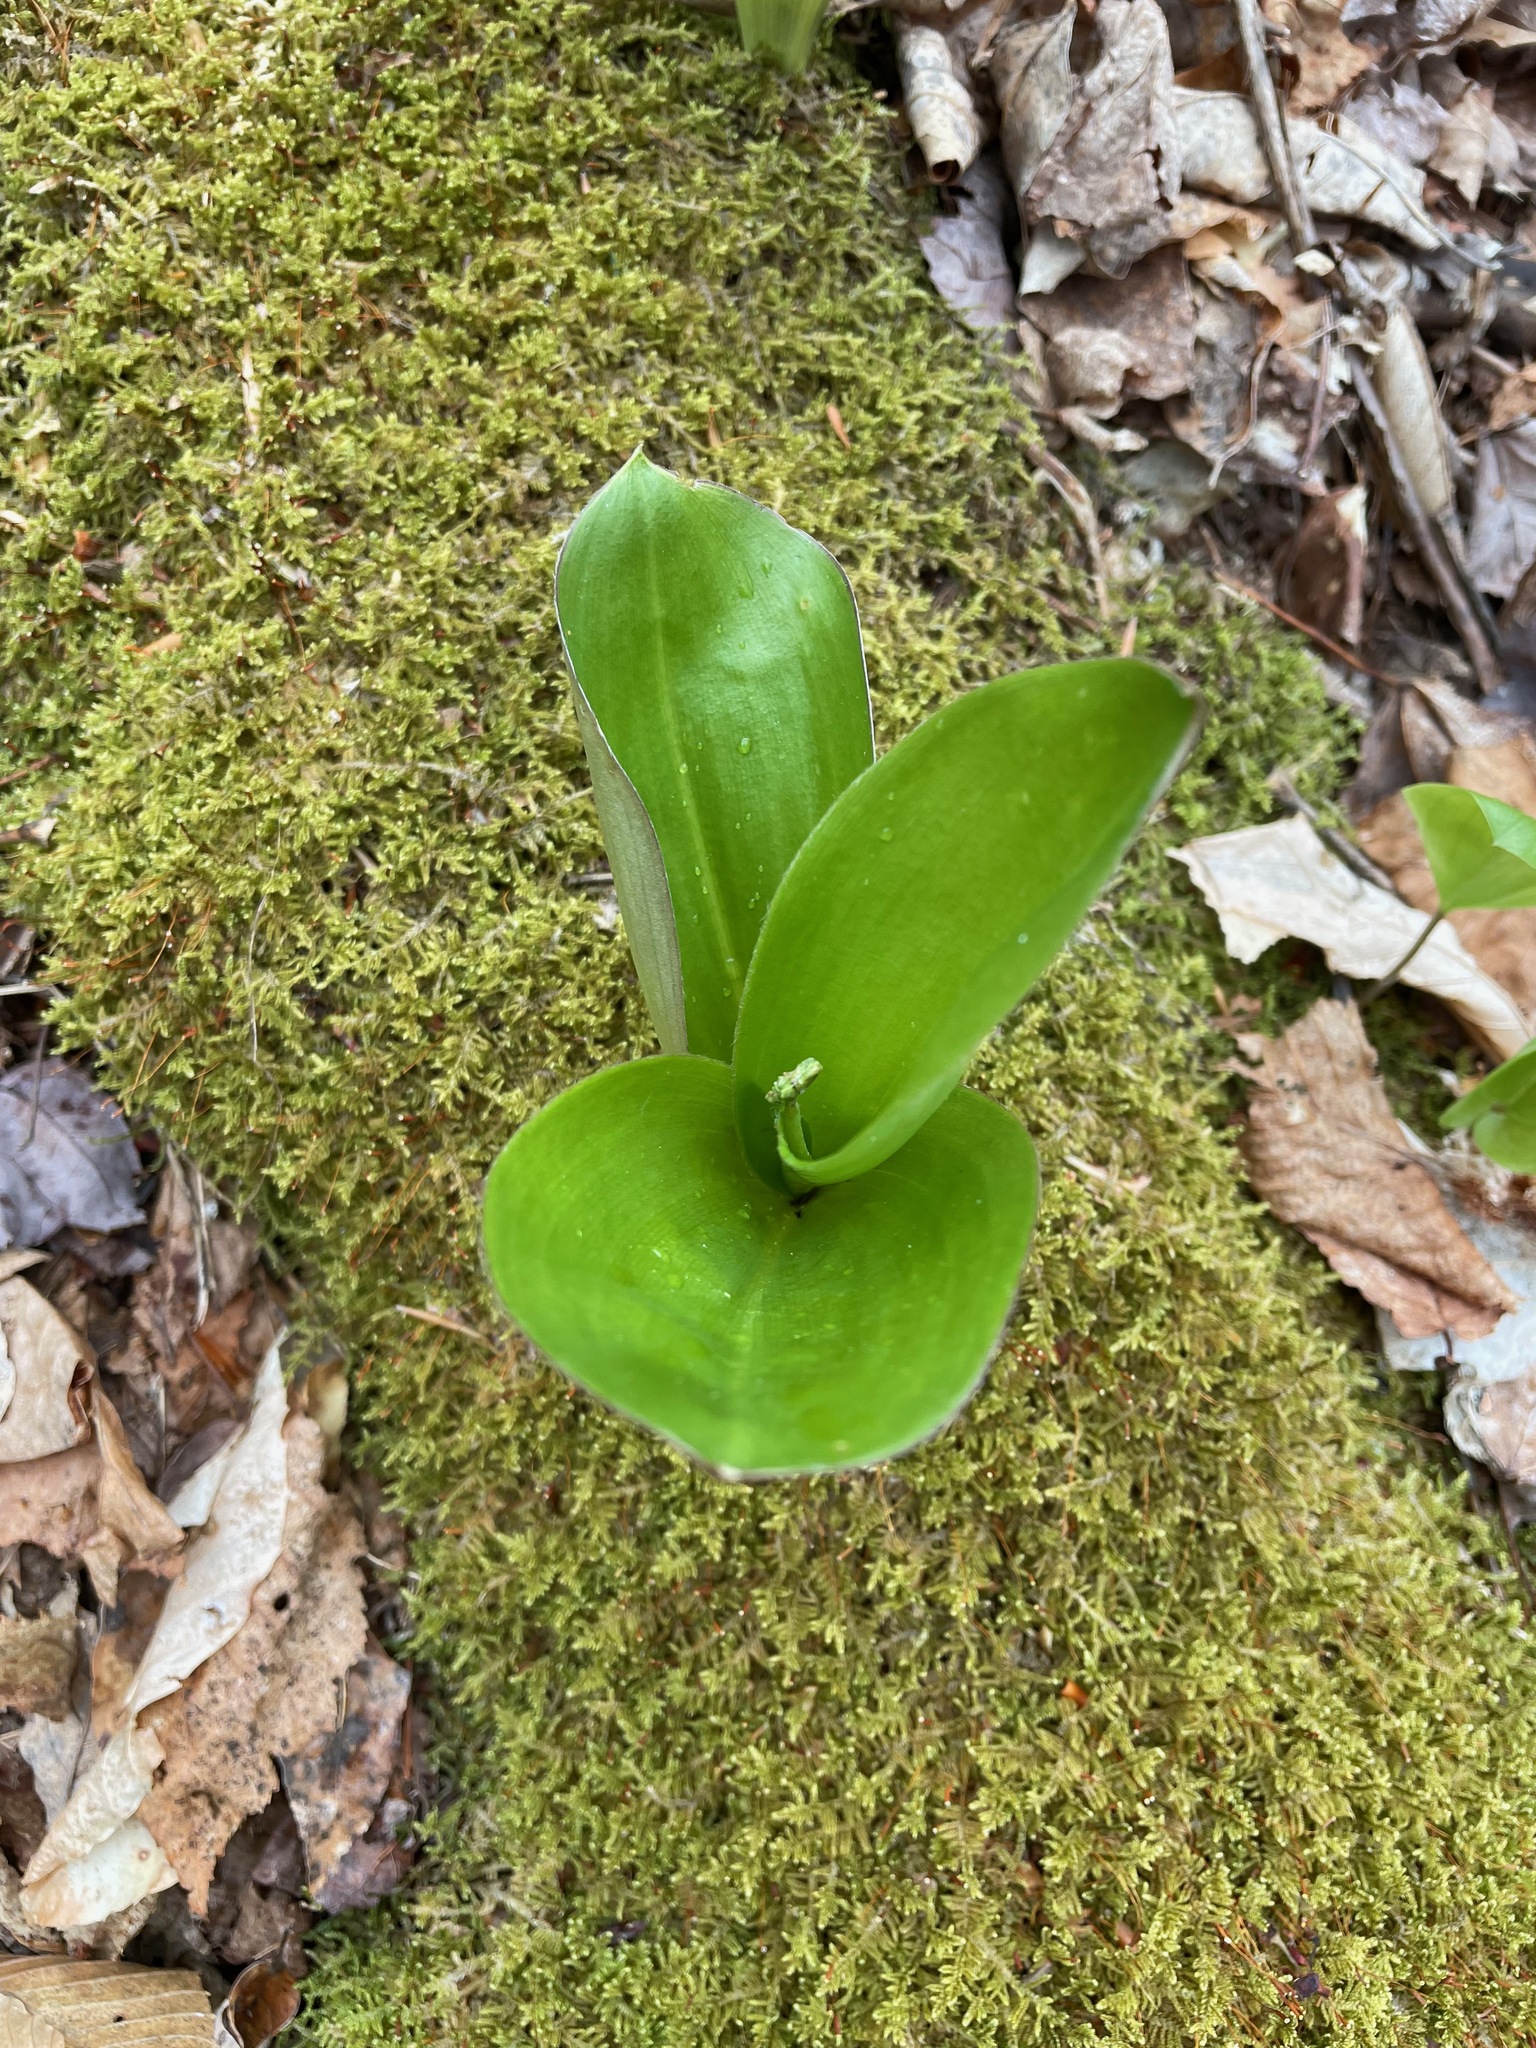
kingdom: Plantae
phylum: Tracheophyta
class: Liliopsida
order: Liliales
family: Liliaceae
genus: Clintonia
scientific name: Clintonia borealis
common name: Yellow clintonia
